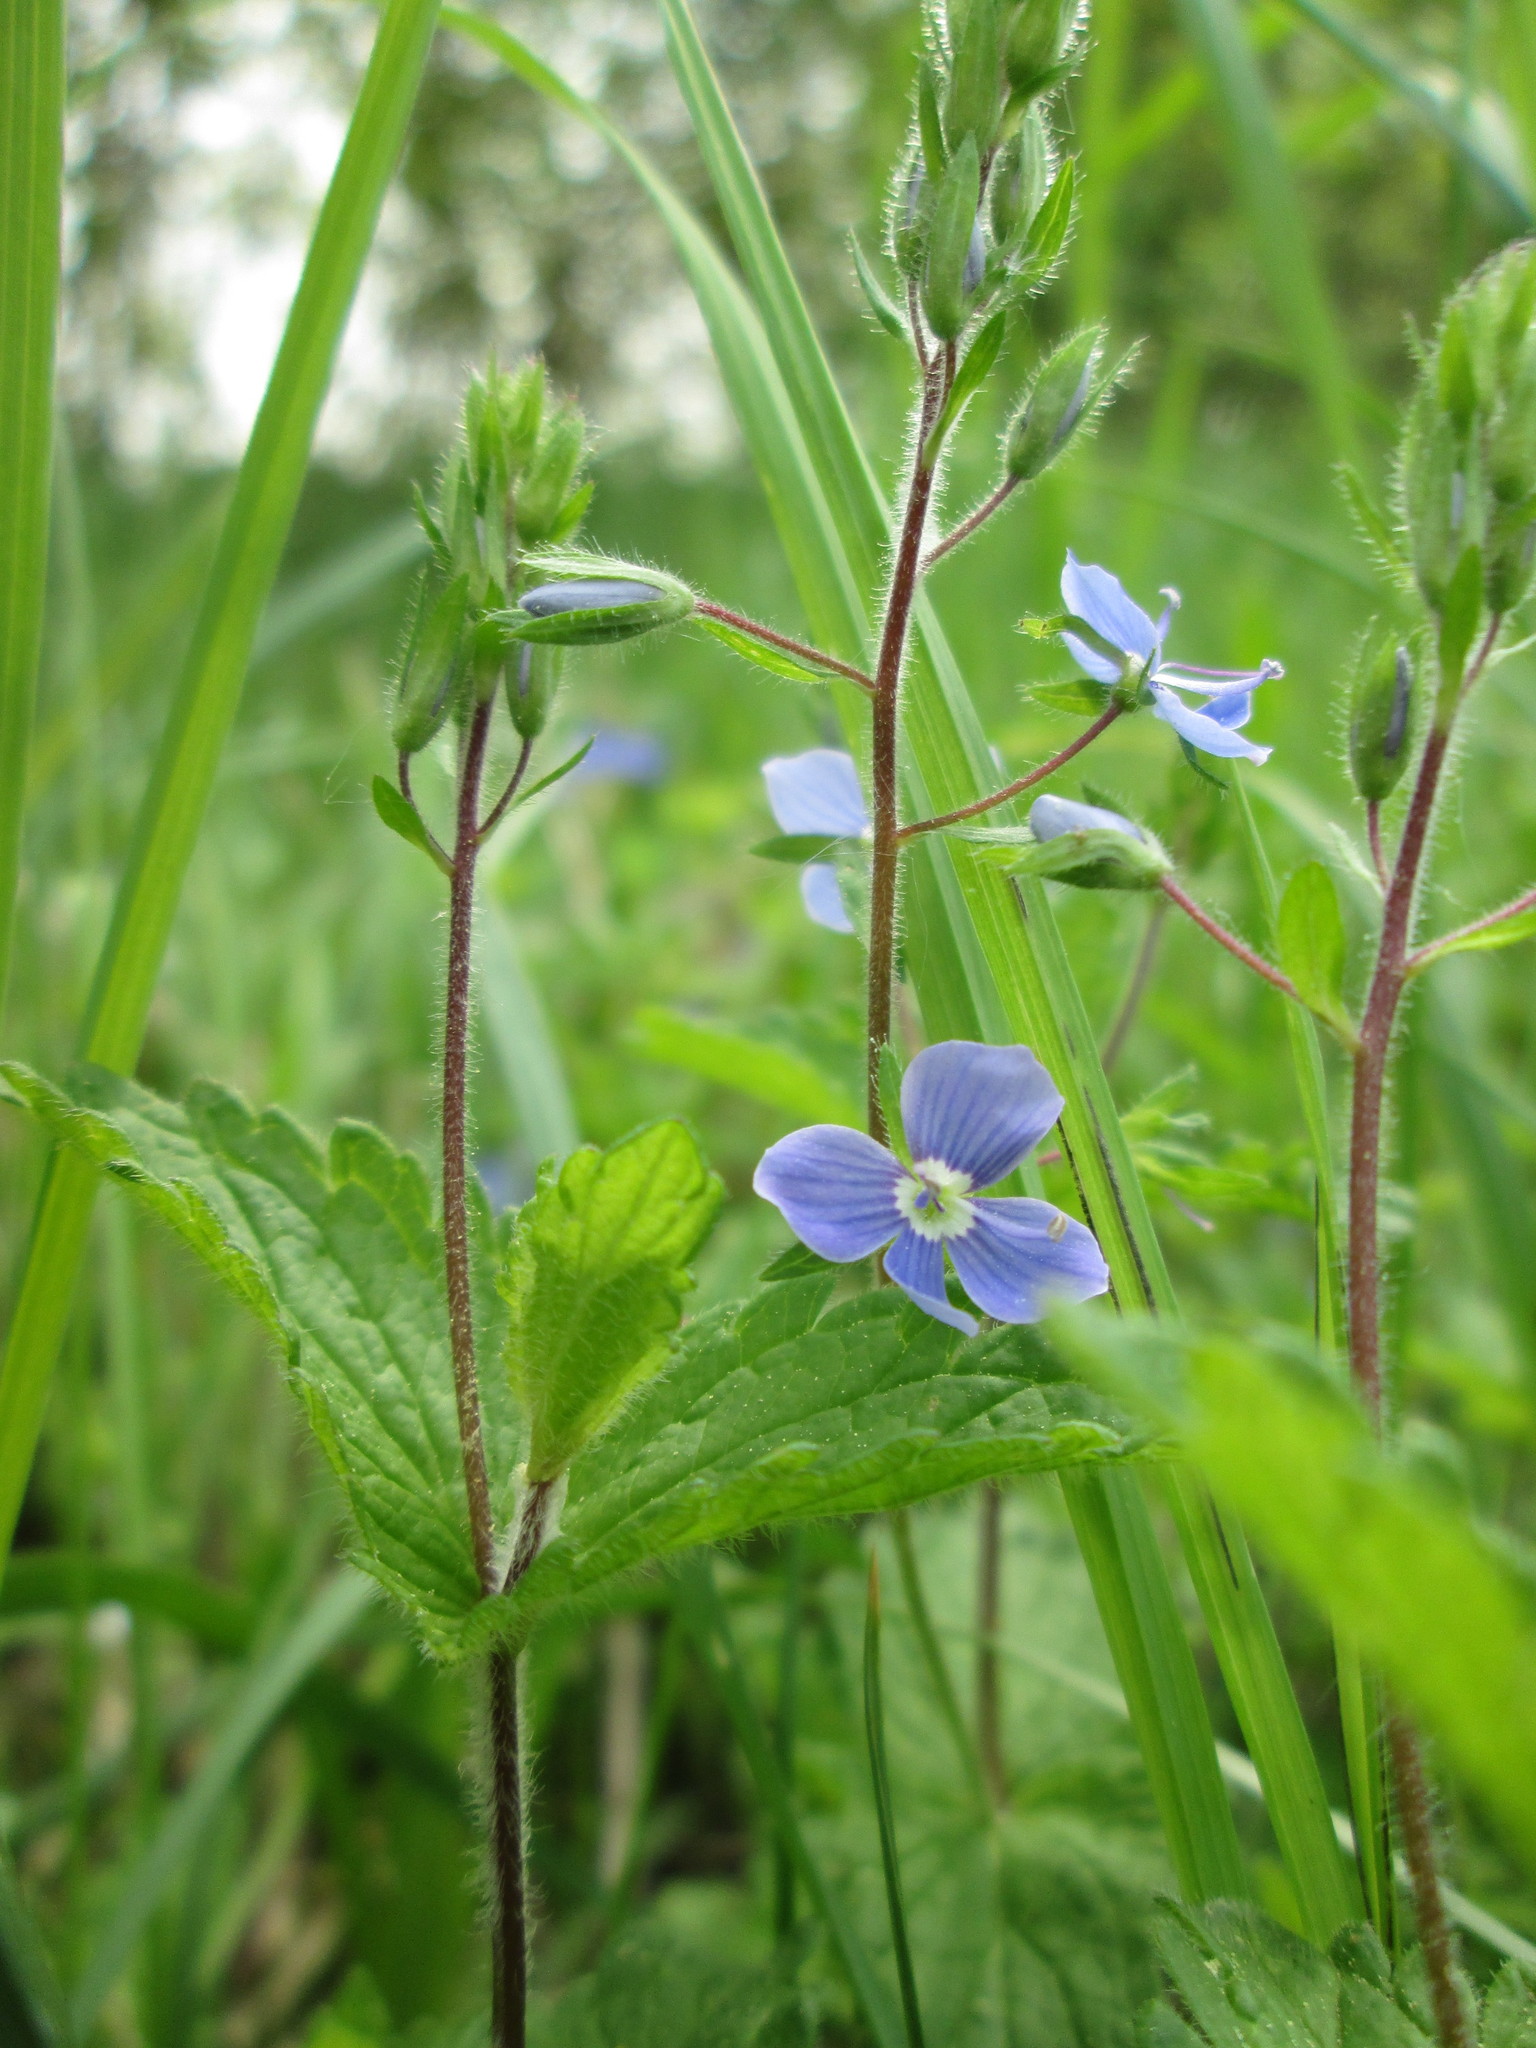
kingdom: Plantae
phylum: Tracheophyta
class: Magnoliopsida
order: Lamiales
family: Plantaginaceae
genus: Veronica
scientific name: Veronica chamaedrys
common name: Germander speedwell
